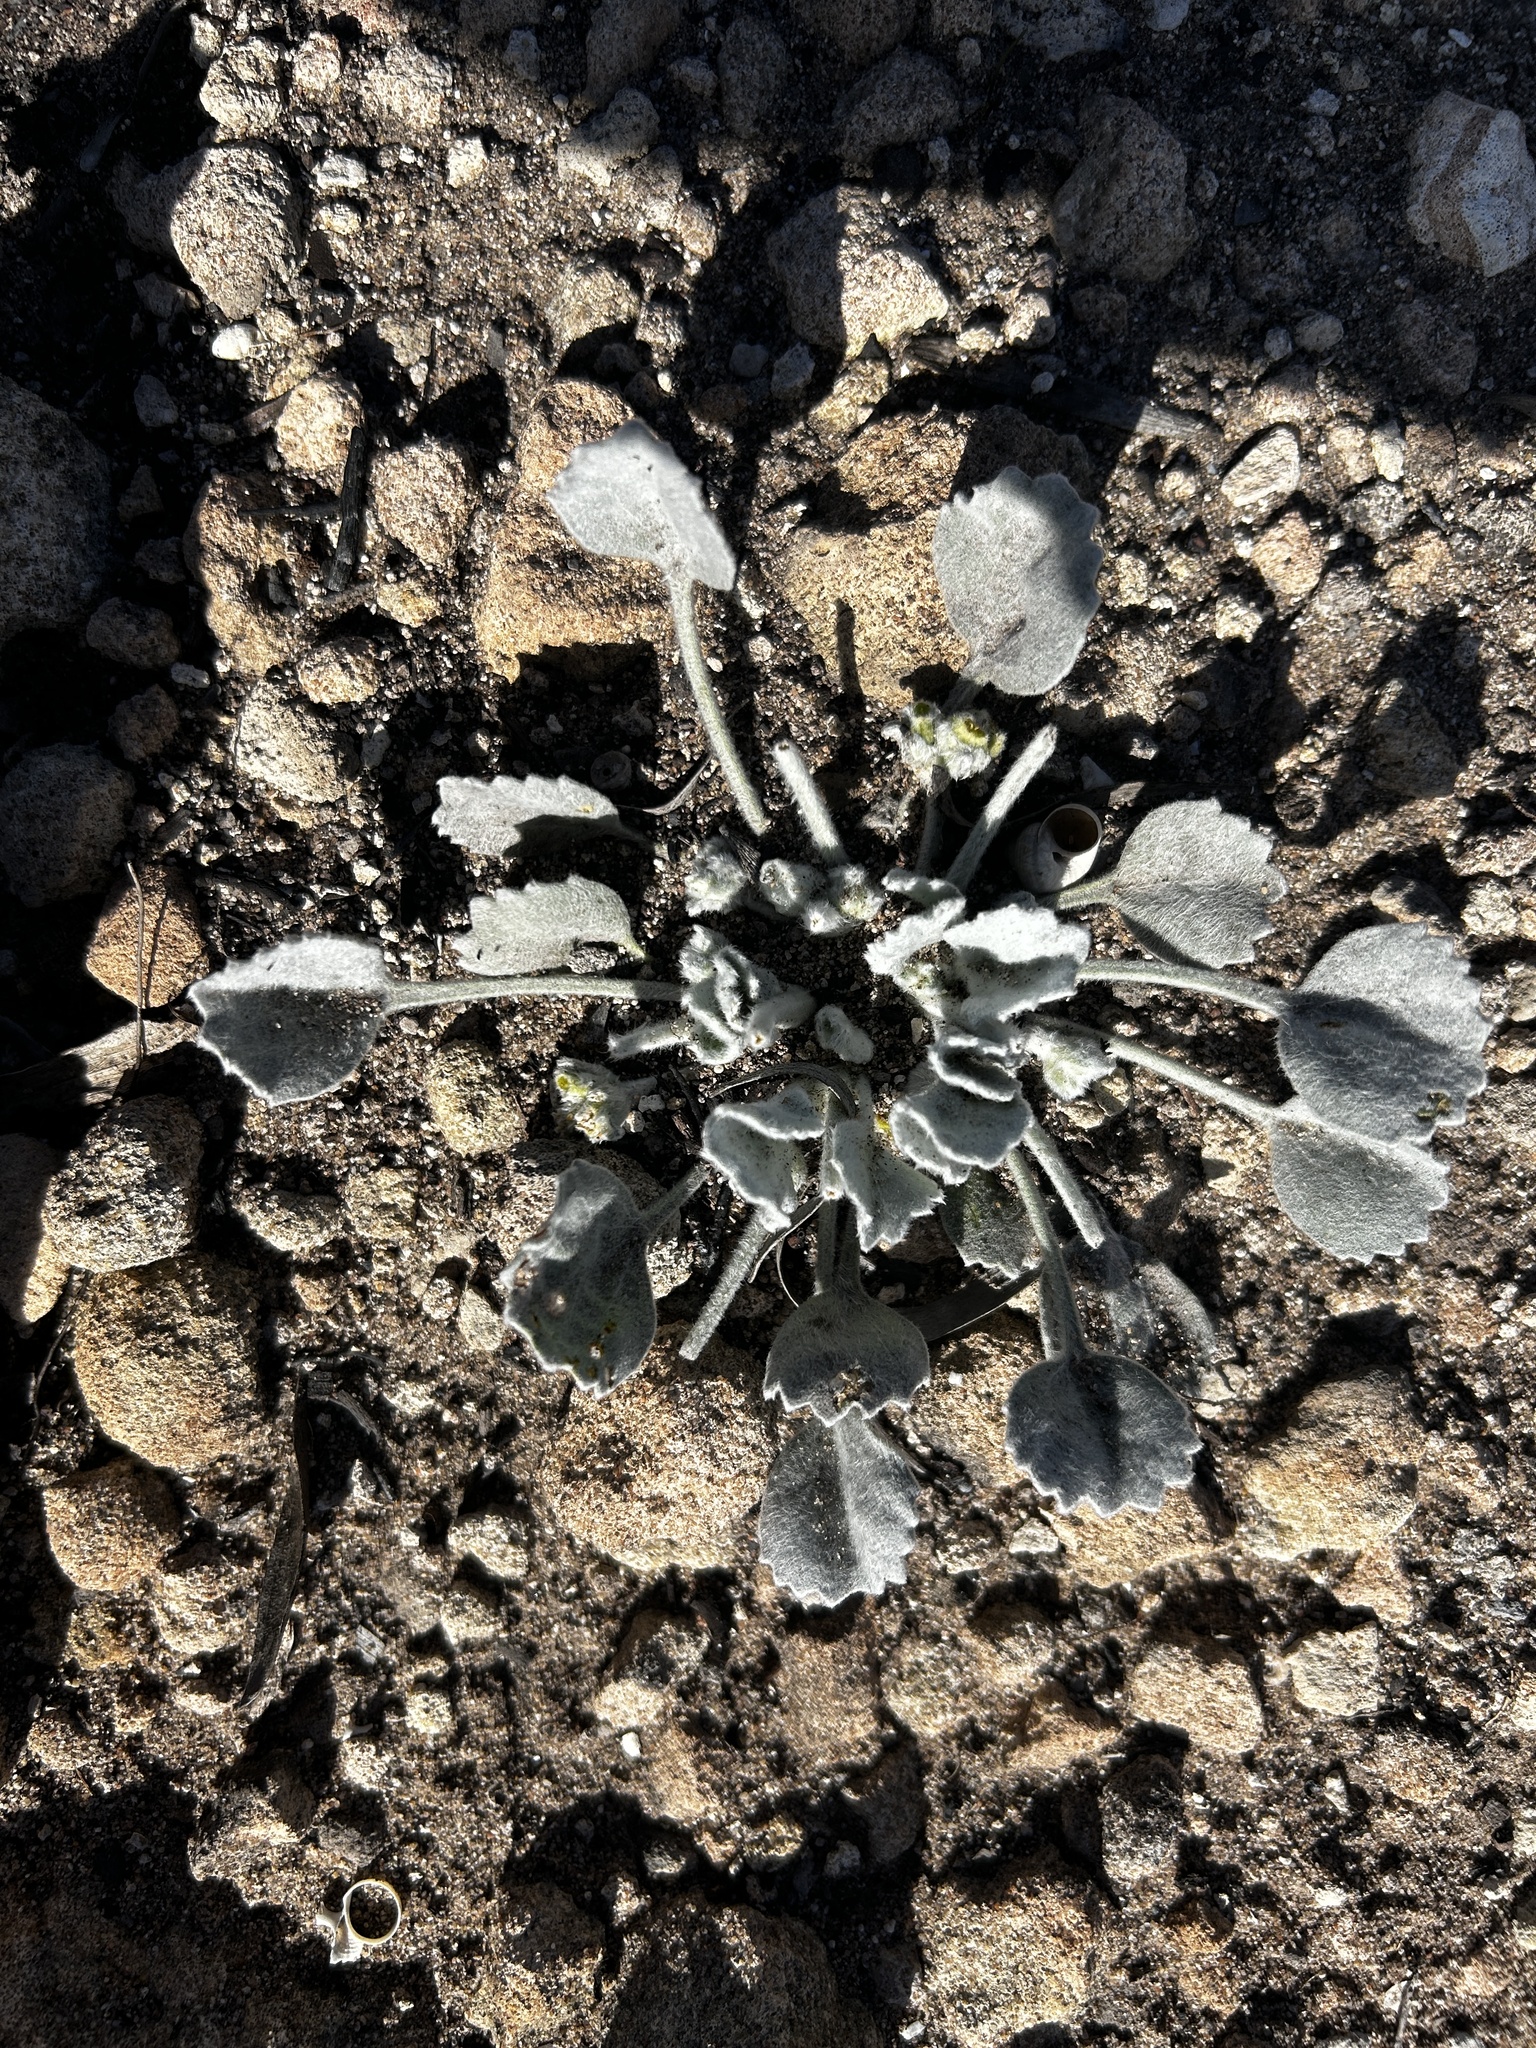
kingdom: Plantae
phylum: Tracheophyta
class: Magnoliopsida
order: Apiales
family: Apiaceae
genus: Centella
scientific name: Centella calcaria
